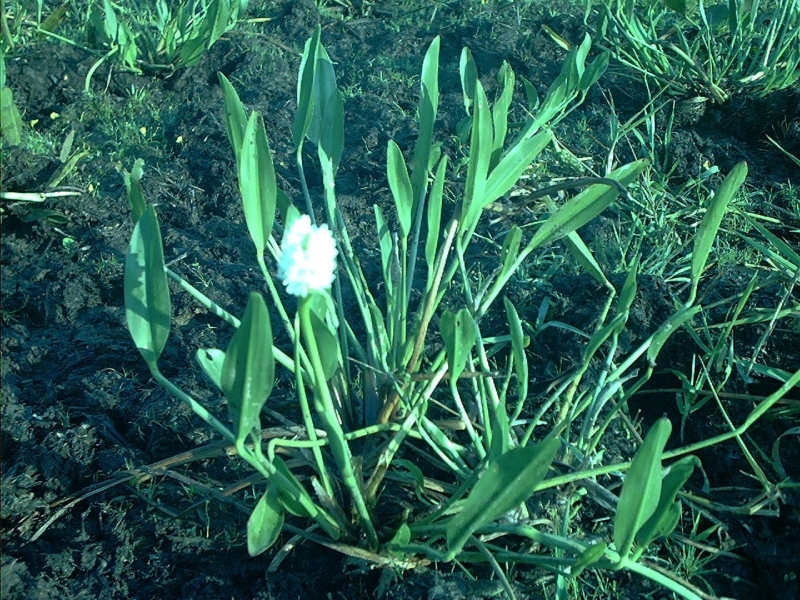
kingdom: Plantae
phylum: Tracheophyta
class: Liliopsida
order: Commelinales
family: Pontederiaceae
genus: Pontederia
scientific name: Pontederia crassipes
